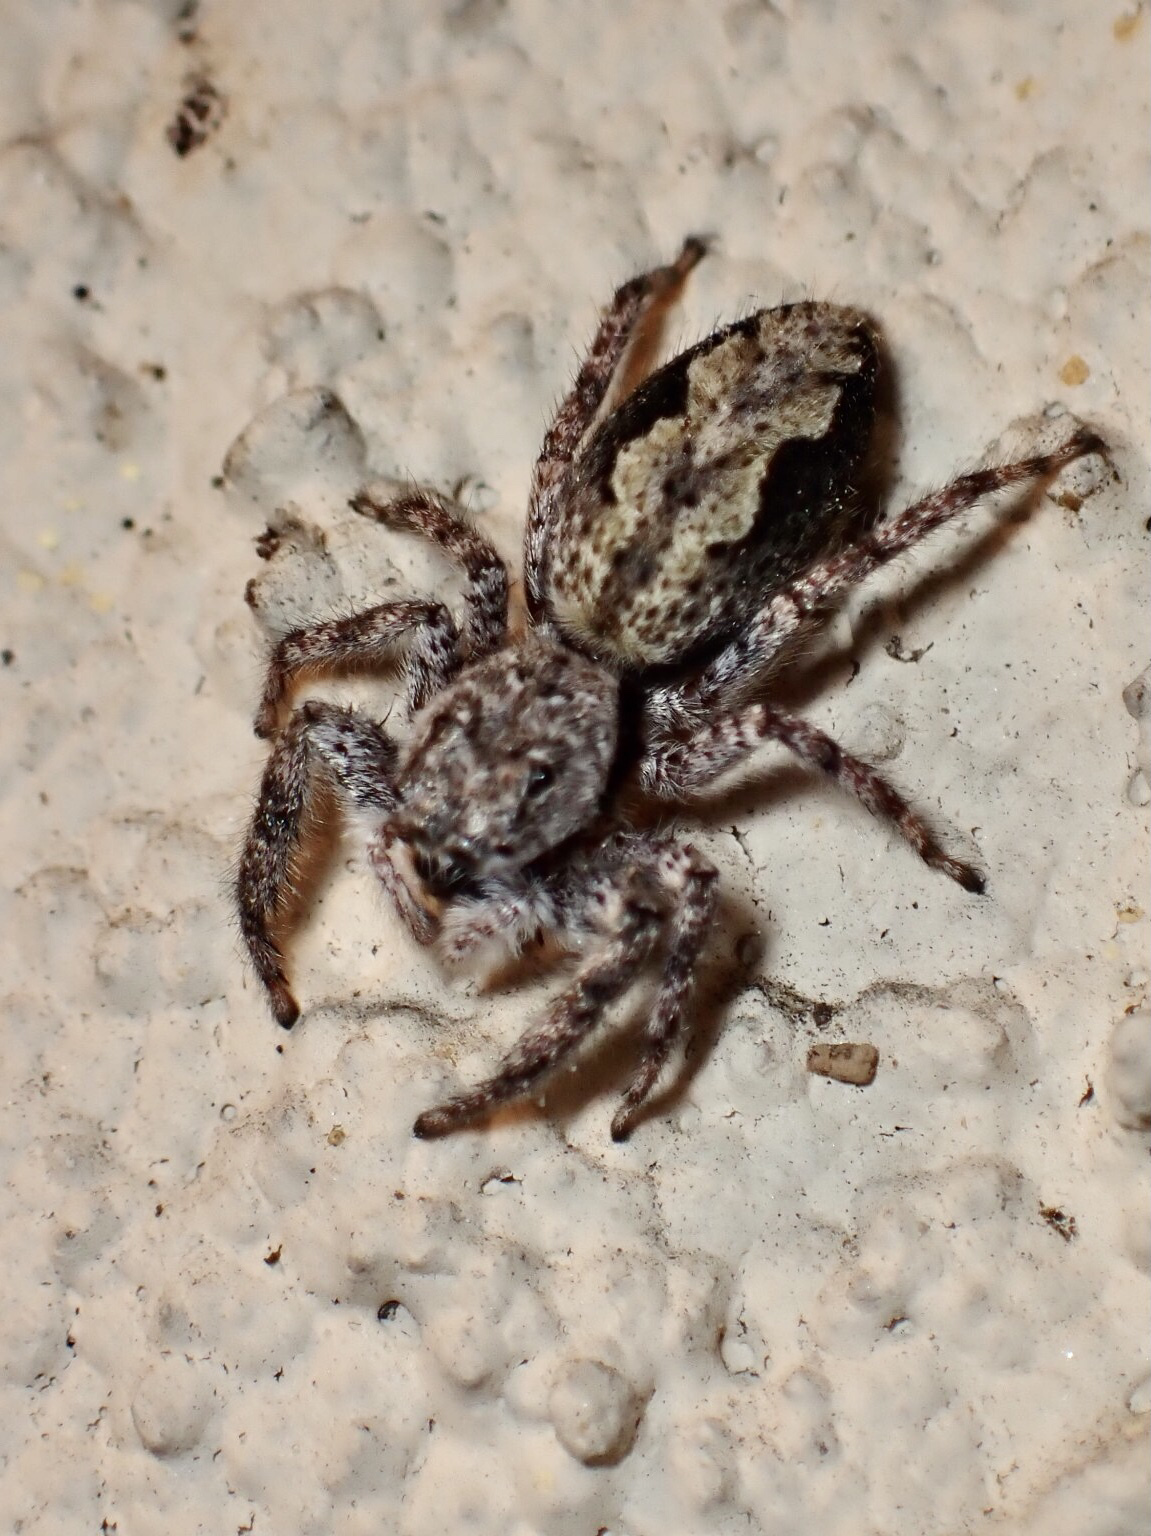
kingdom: Animalia
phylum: Arthropoda
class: Arachnida
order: Araneae
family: Salticidae
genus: Platycryptus
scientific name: Platycryptus undatus
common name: Tan jumping spider
